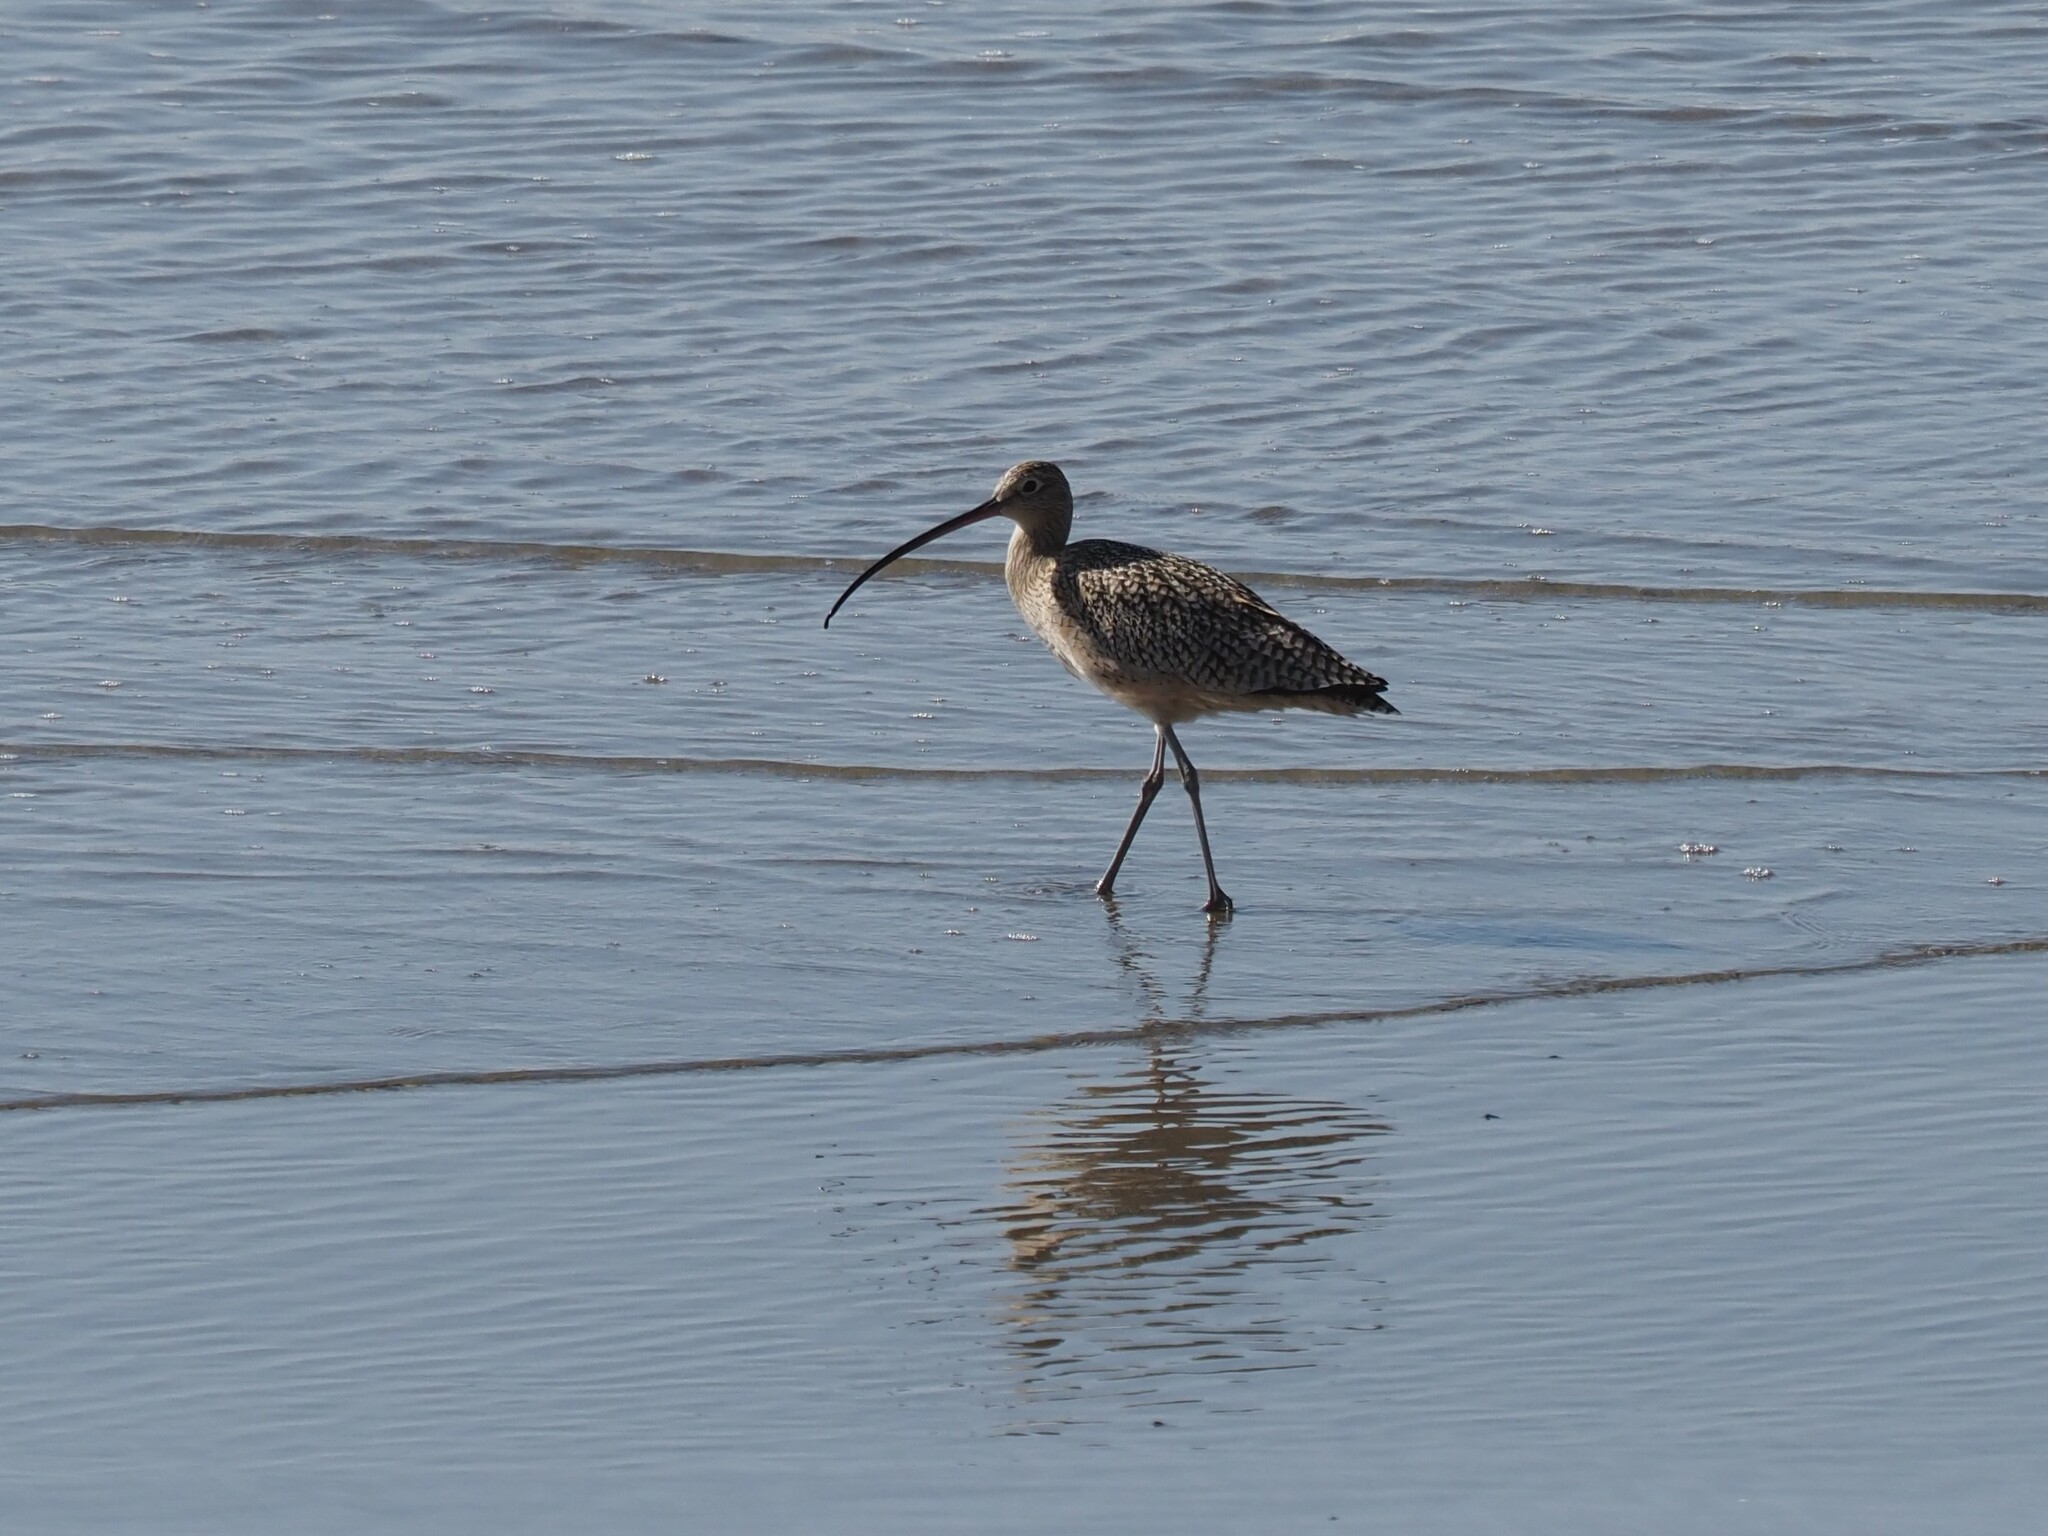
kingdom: Animalia
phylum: Chordata
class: Aves
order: Charadriiformes
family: Scolopacidae
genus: Numenius
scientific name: Numenius americanus
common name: Long-billed curlew
